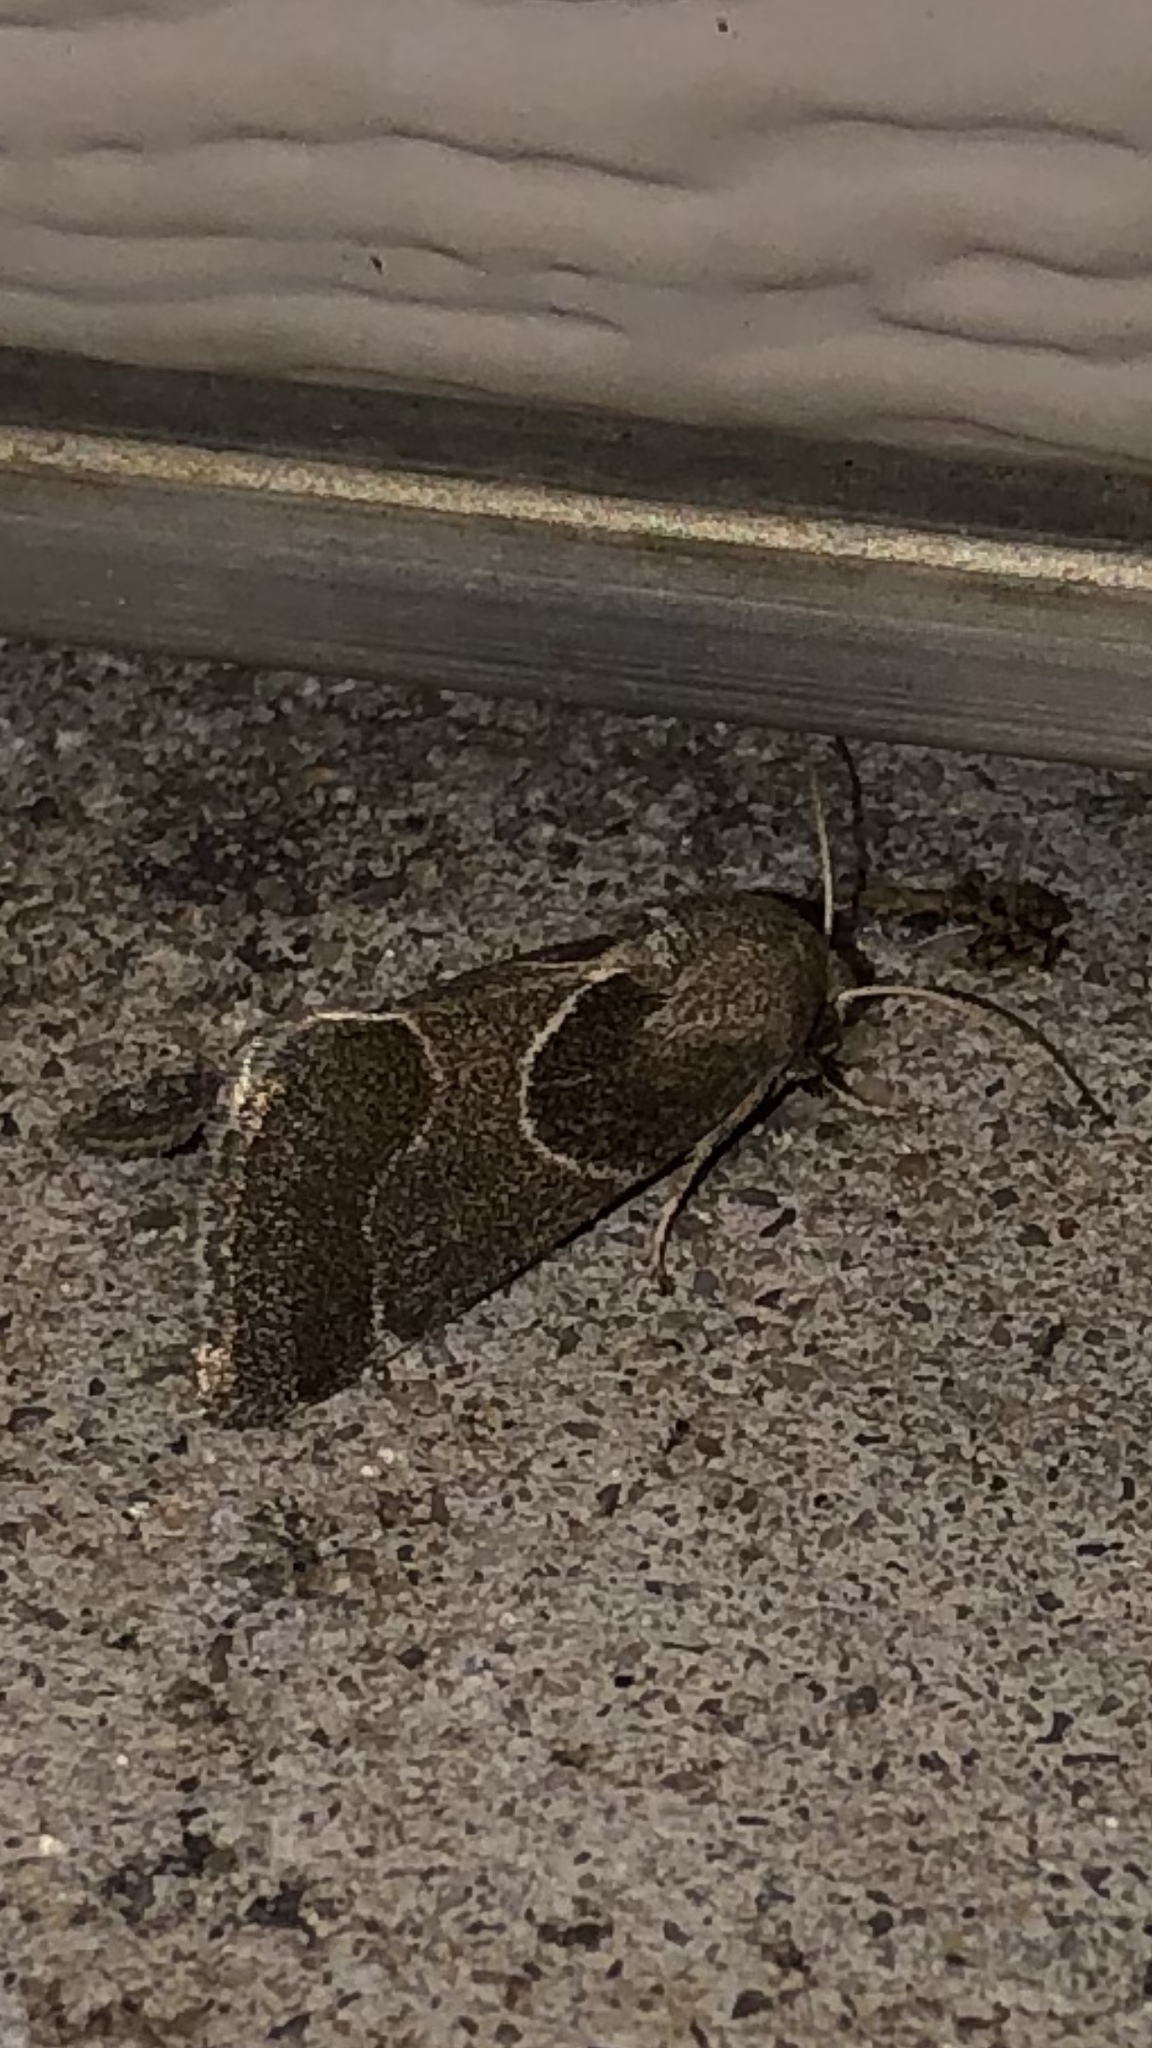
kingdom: Animalia
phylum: Arthropoda
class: Insecta
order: Lepidoptera
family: Noctuidae
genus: Schinia
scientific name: Schinia rivulosa
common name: Scarce meal-moth
